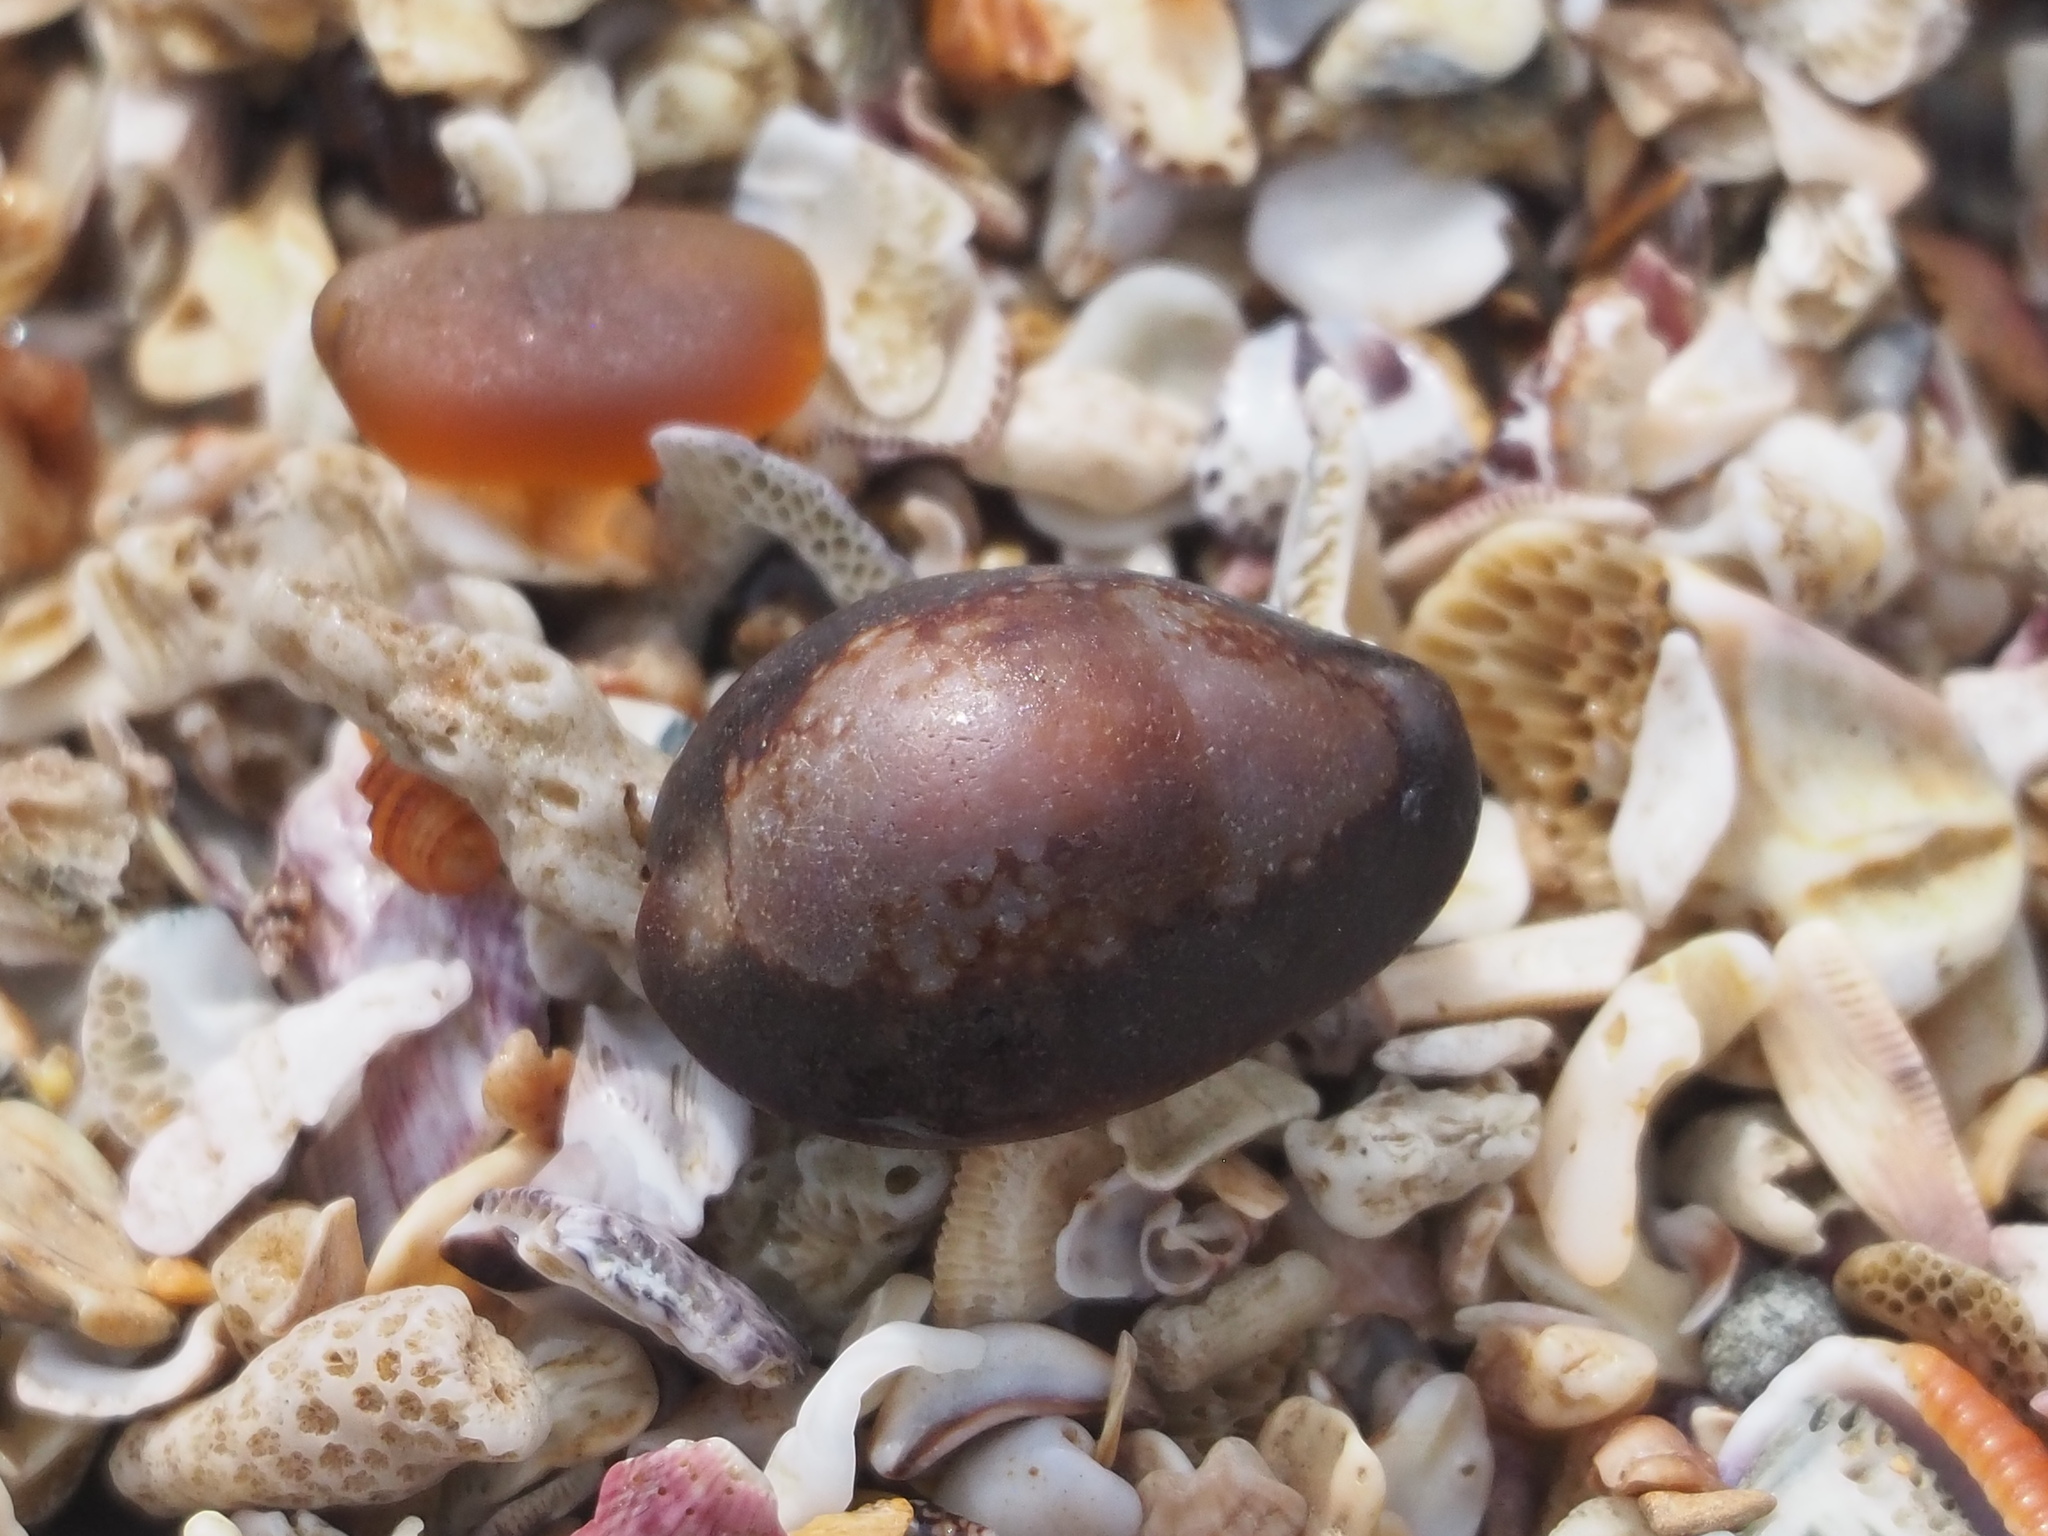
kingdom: Animalia
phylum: Mollusca
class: Gastropoda
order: Littorinimorpha
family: Cypraeidae
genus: Monetaria
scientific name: Monetaria caputserpentis
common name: Serpent's head cowrie
